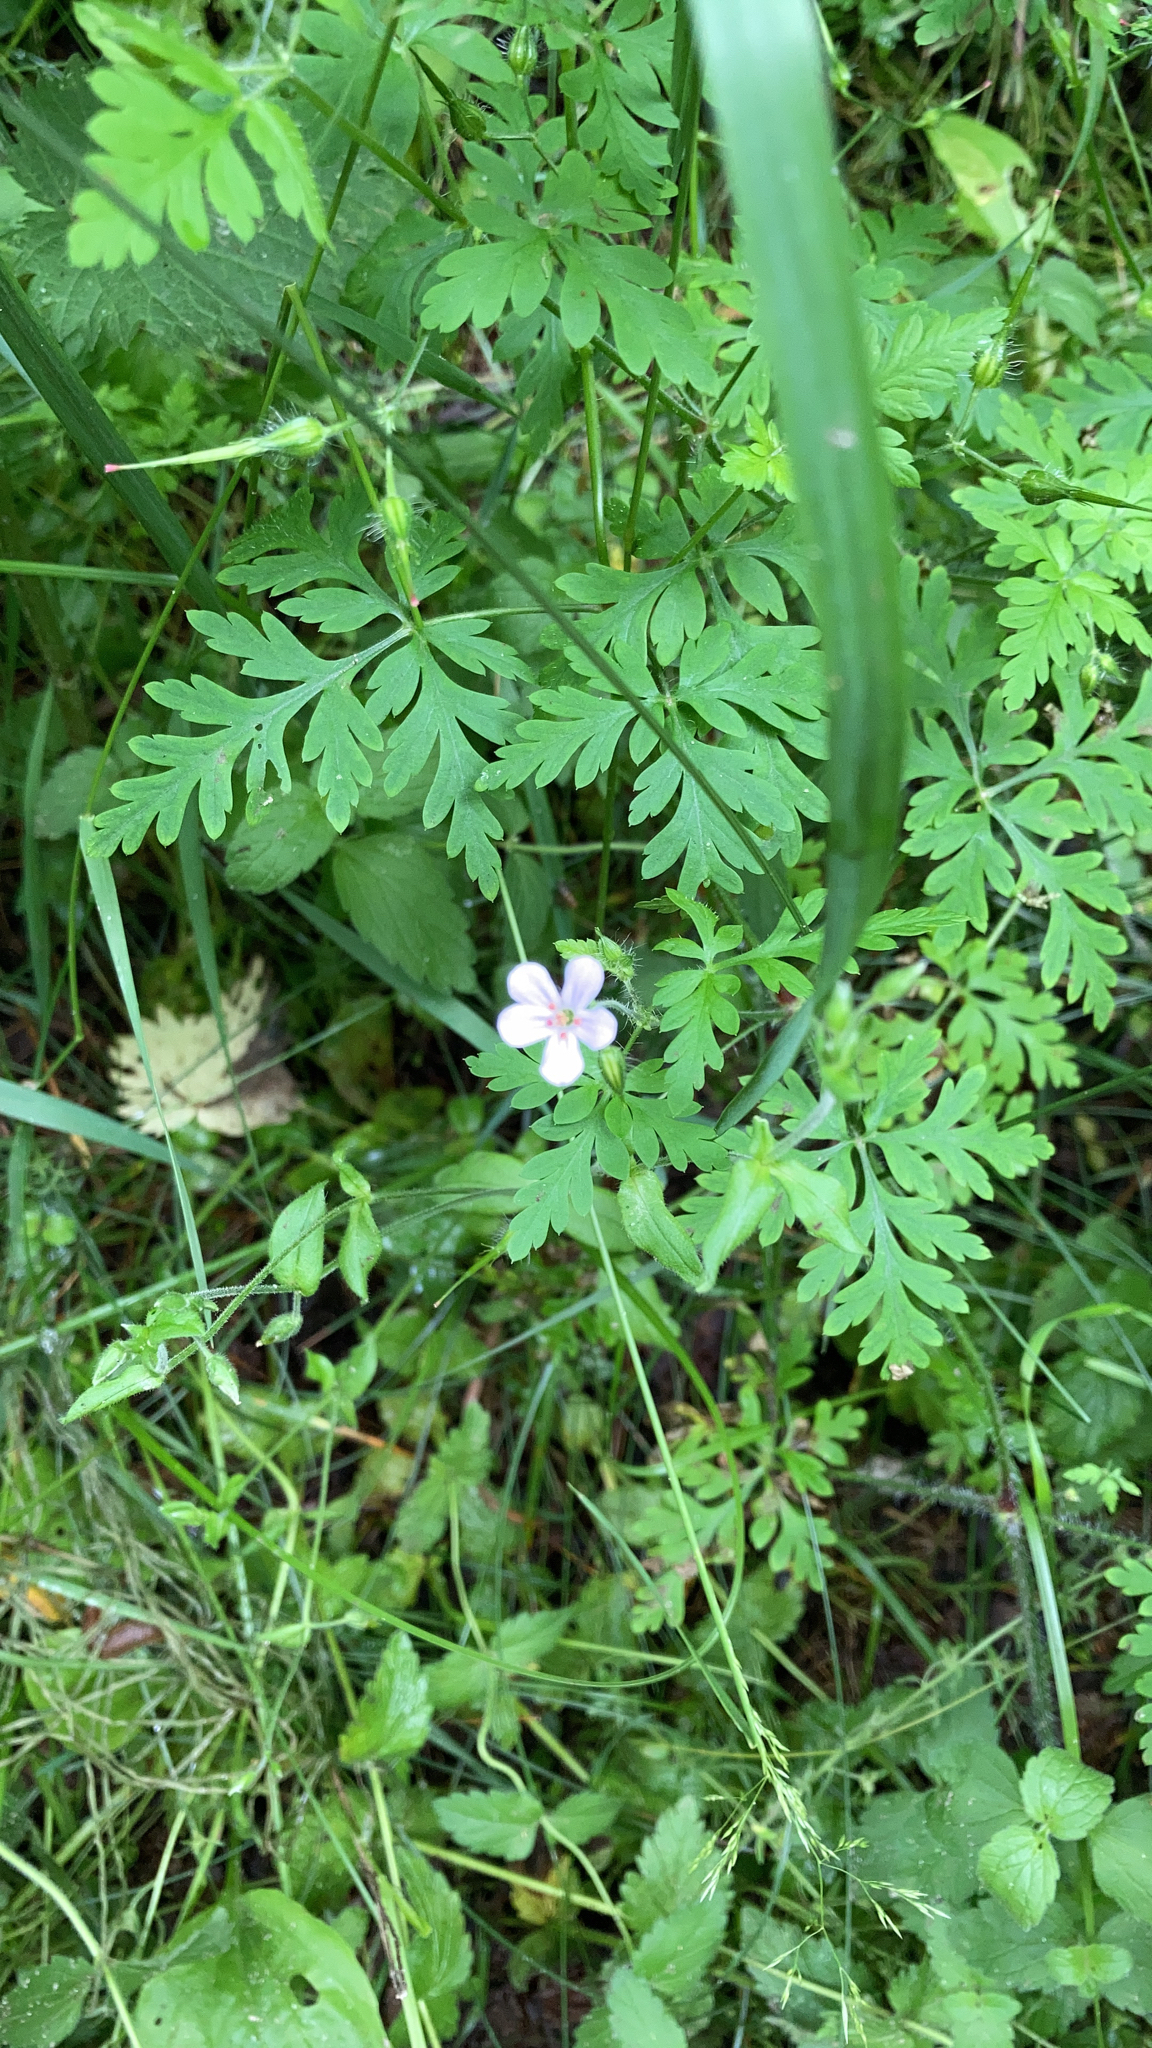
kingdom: Plantae
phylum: Tracheophyta
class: Magnoliopsida
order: Geraniales
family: Geraniaceae
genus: Geranium
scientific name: Geranium robertianum
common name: Herb-robert
